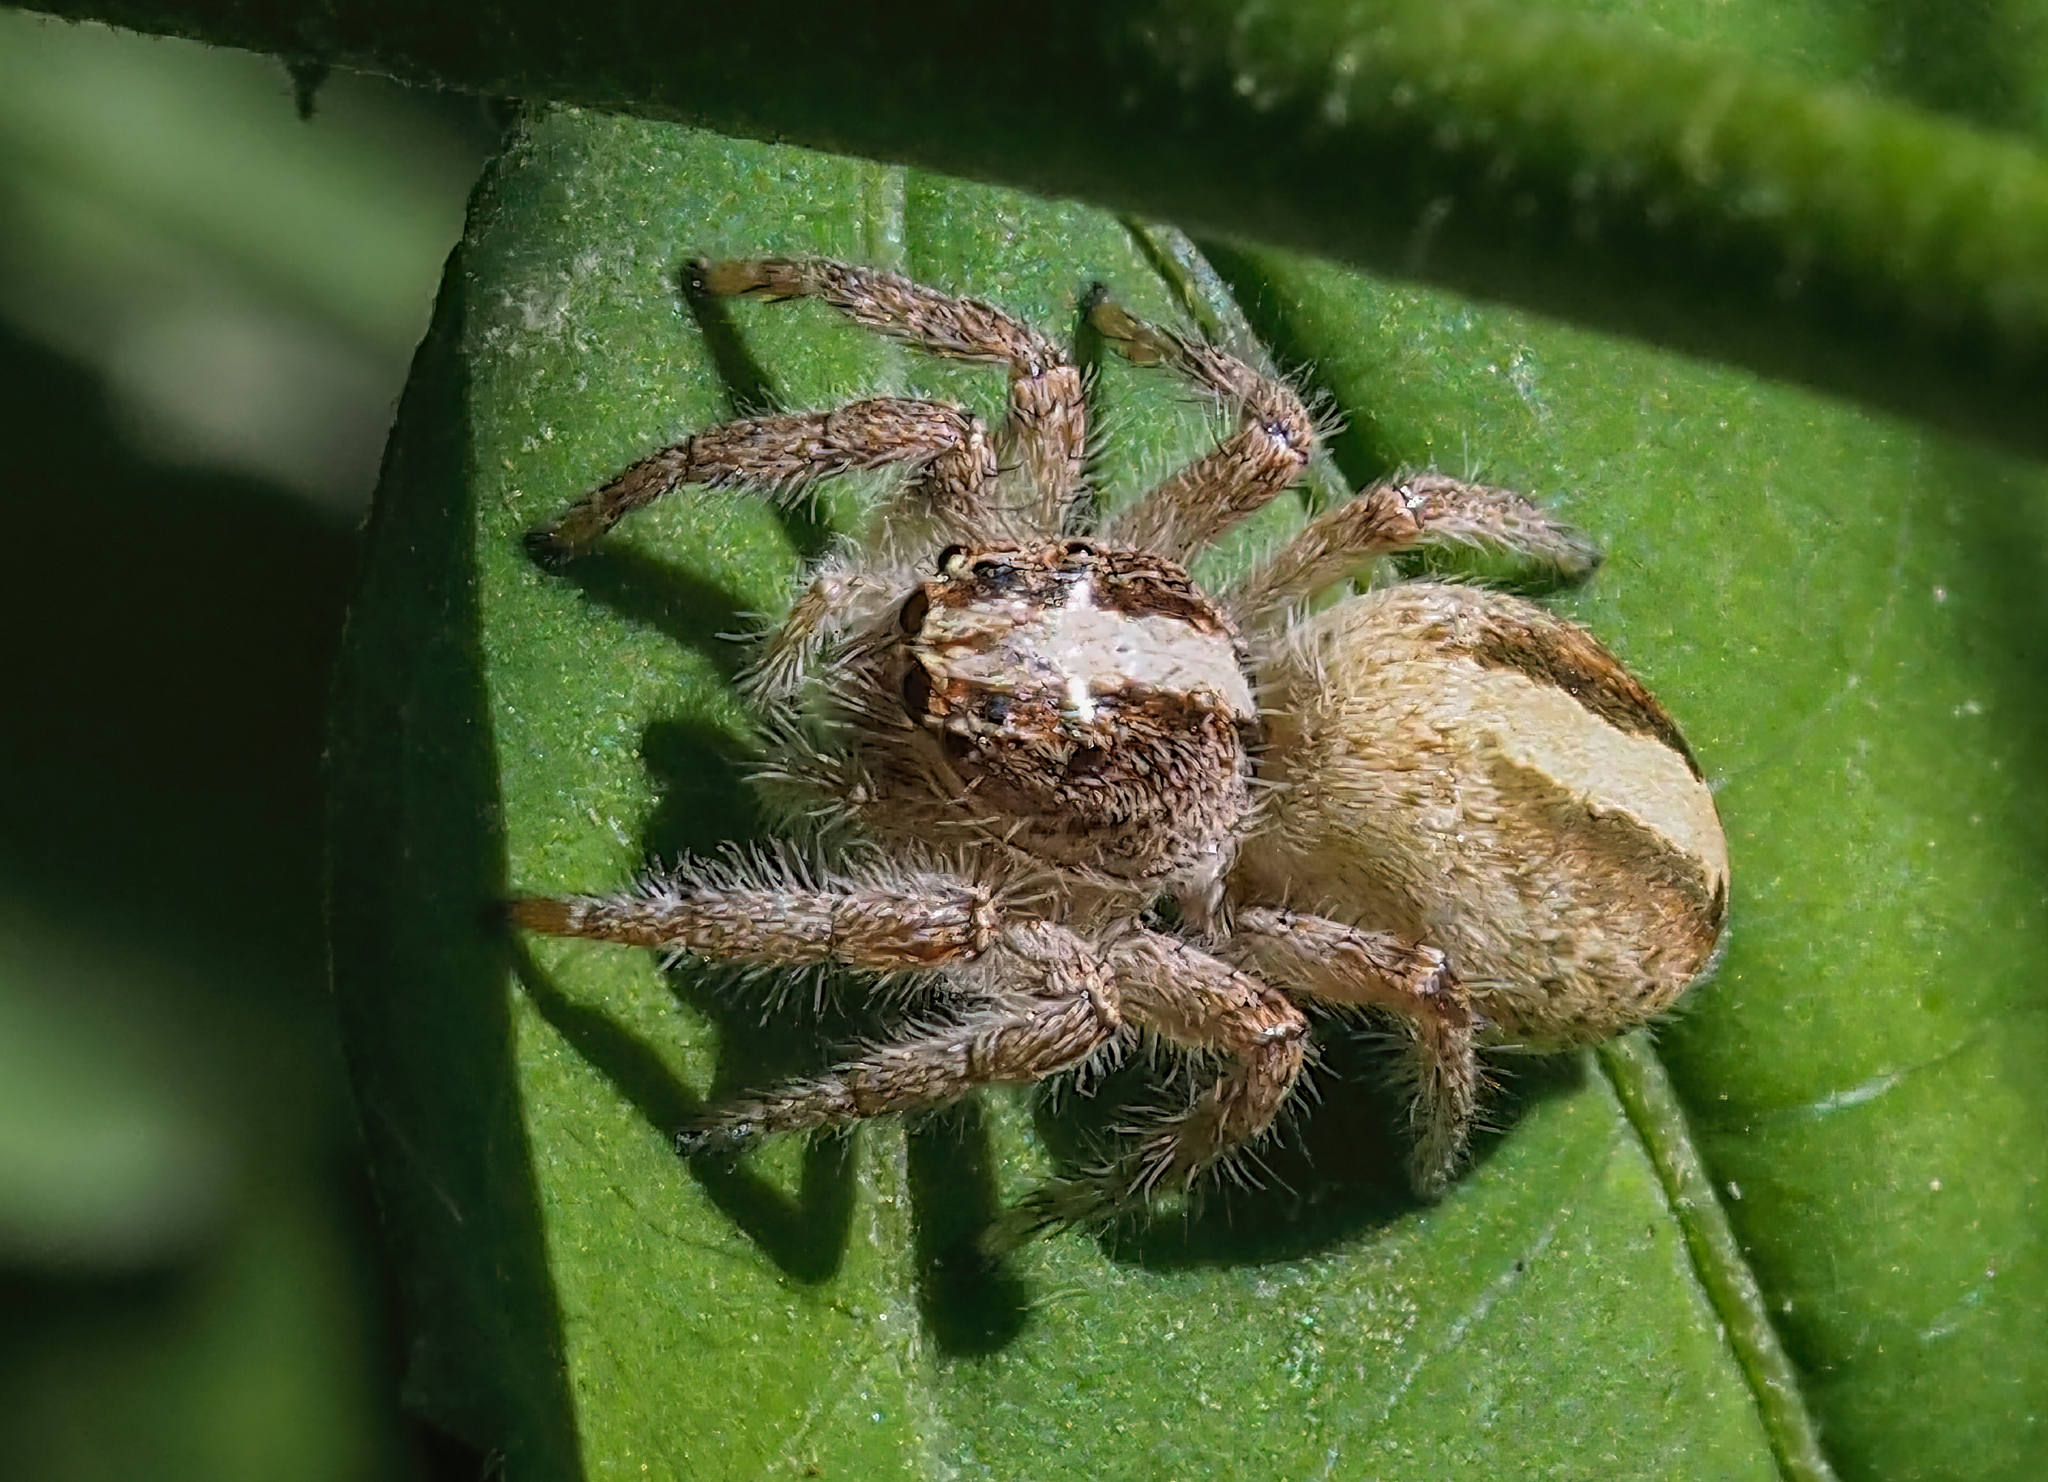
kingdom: Animalia
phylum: Arthropoda
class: Arachnida
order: Araneae
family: Salticidae
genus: Megafreya
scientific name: Megafreya sutrix
